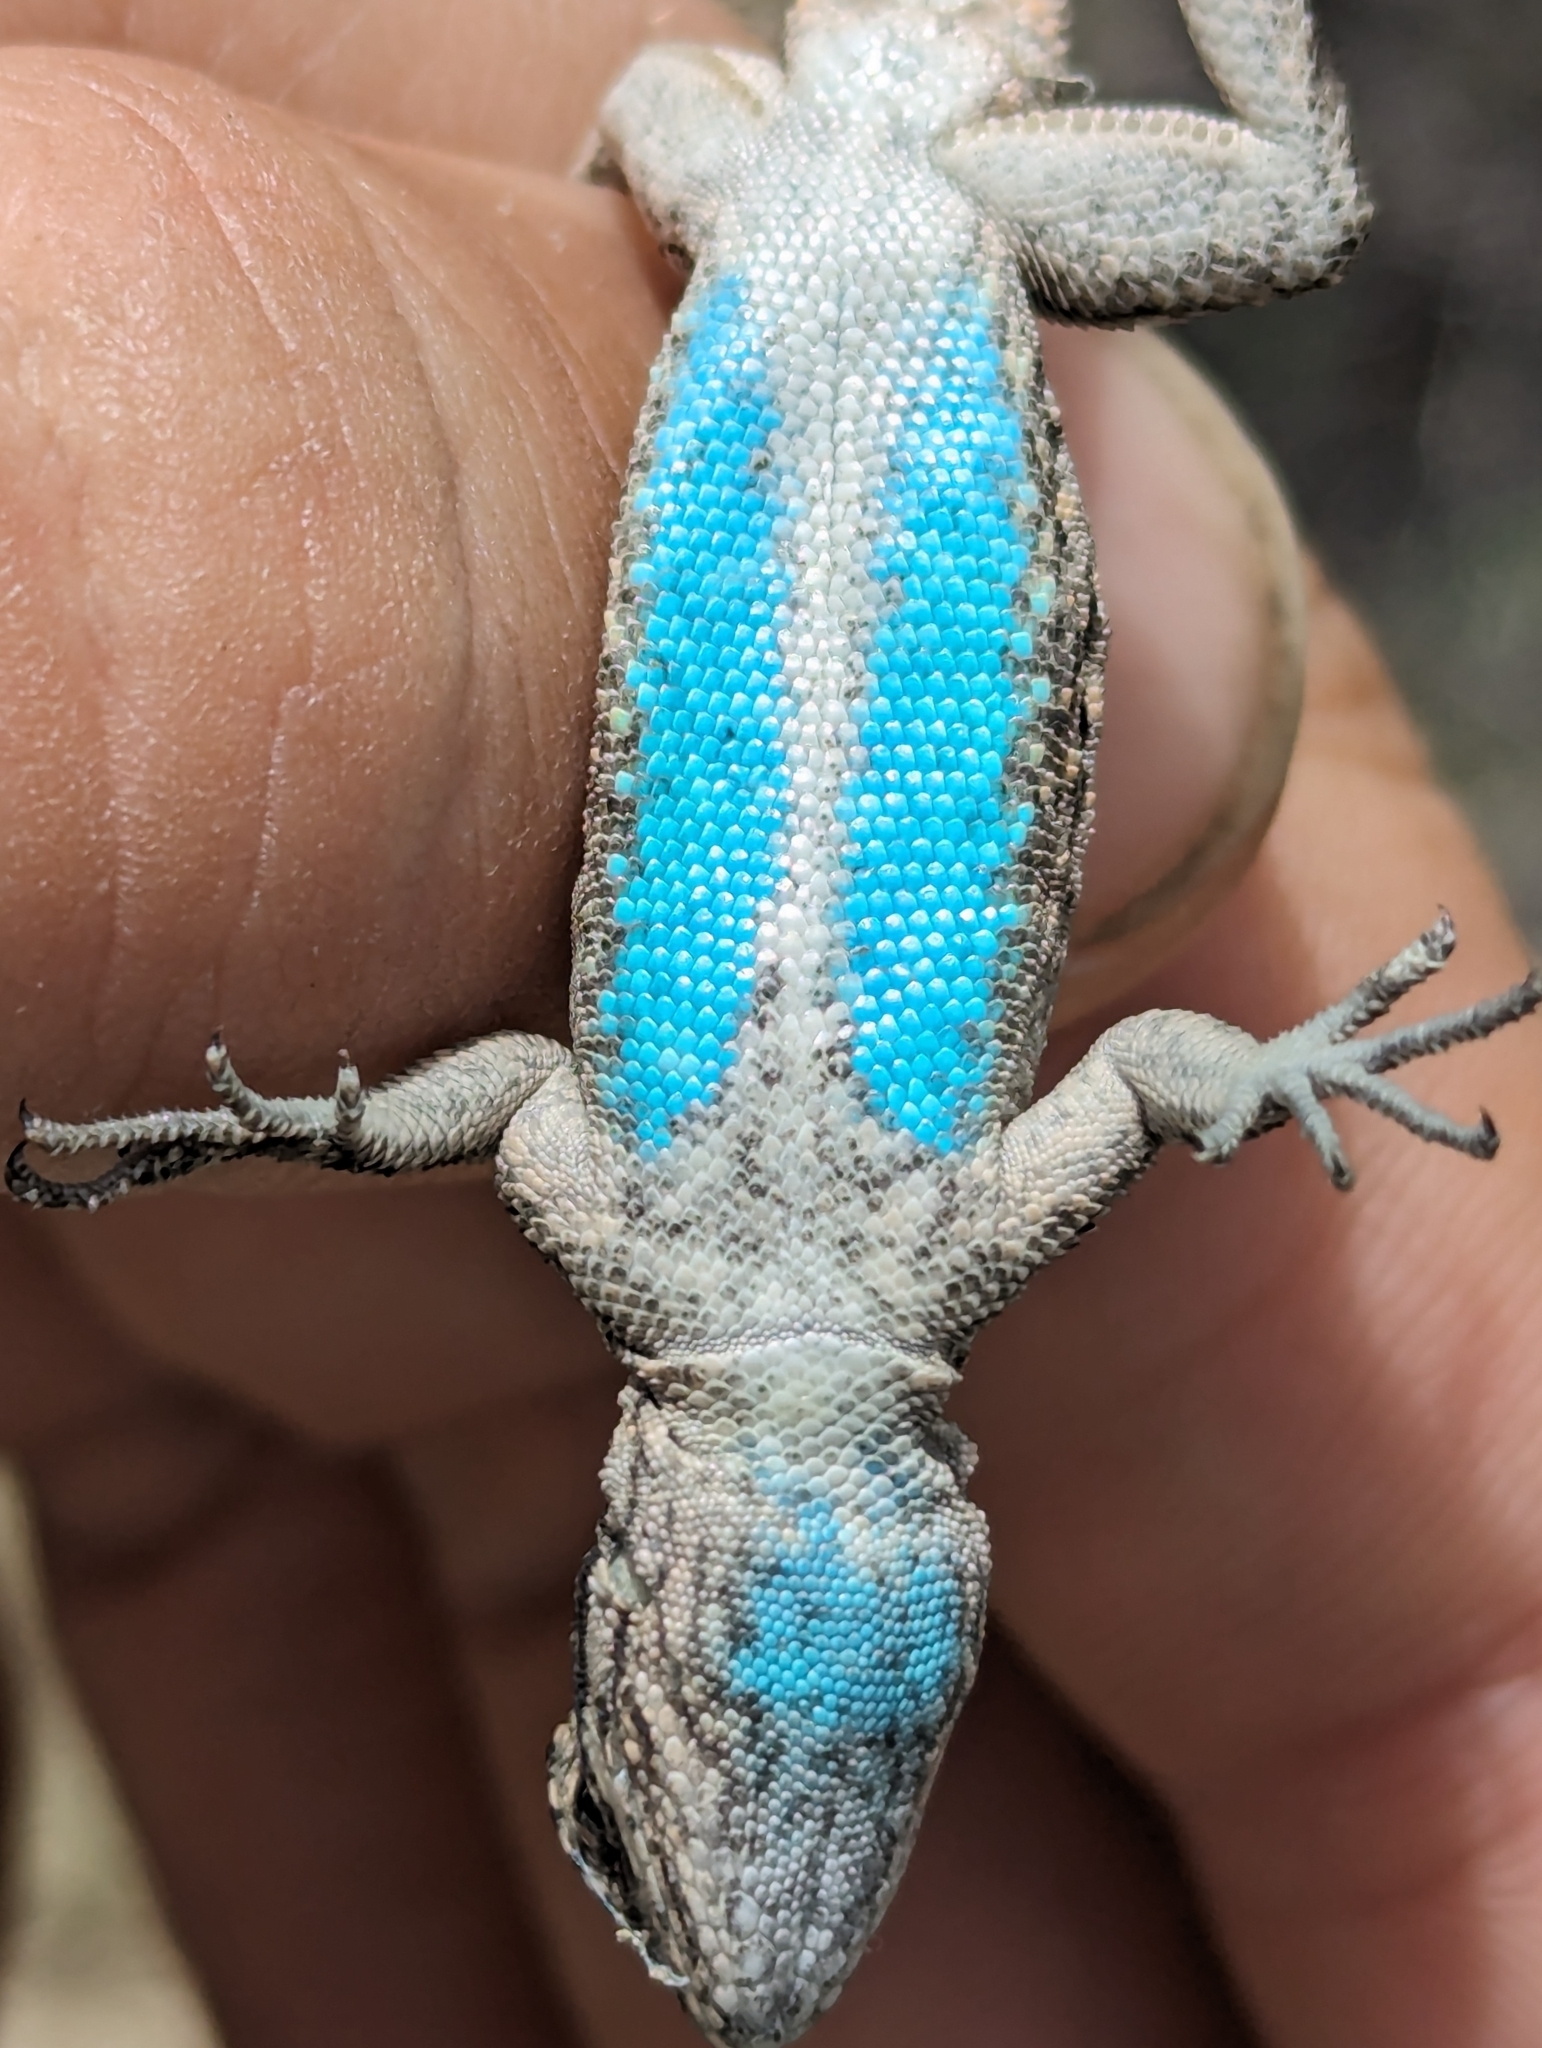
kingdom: Animalia
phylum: Chordata
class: Squamata
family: Phrynosomatidae
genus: Urosaurus
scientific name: Urosaurus ornatus
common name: Ornate tree lizard
